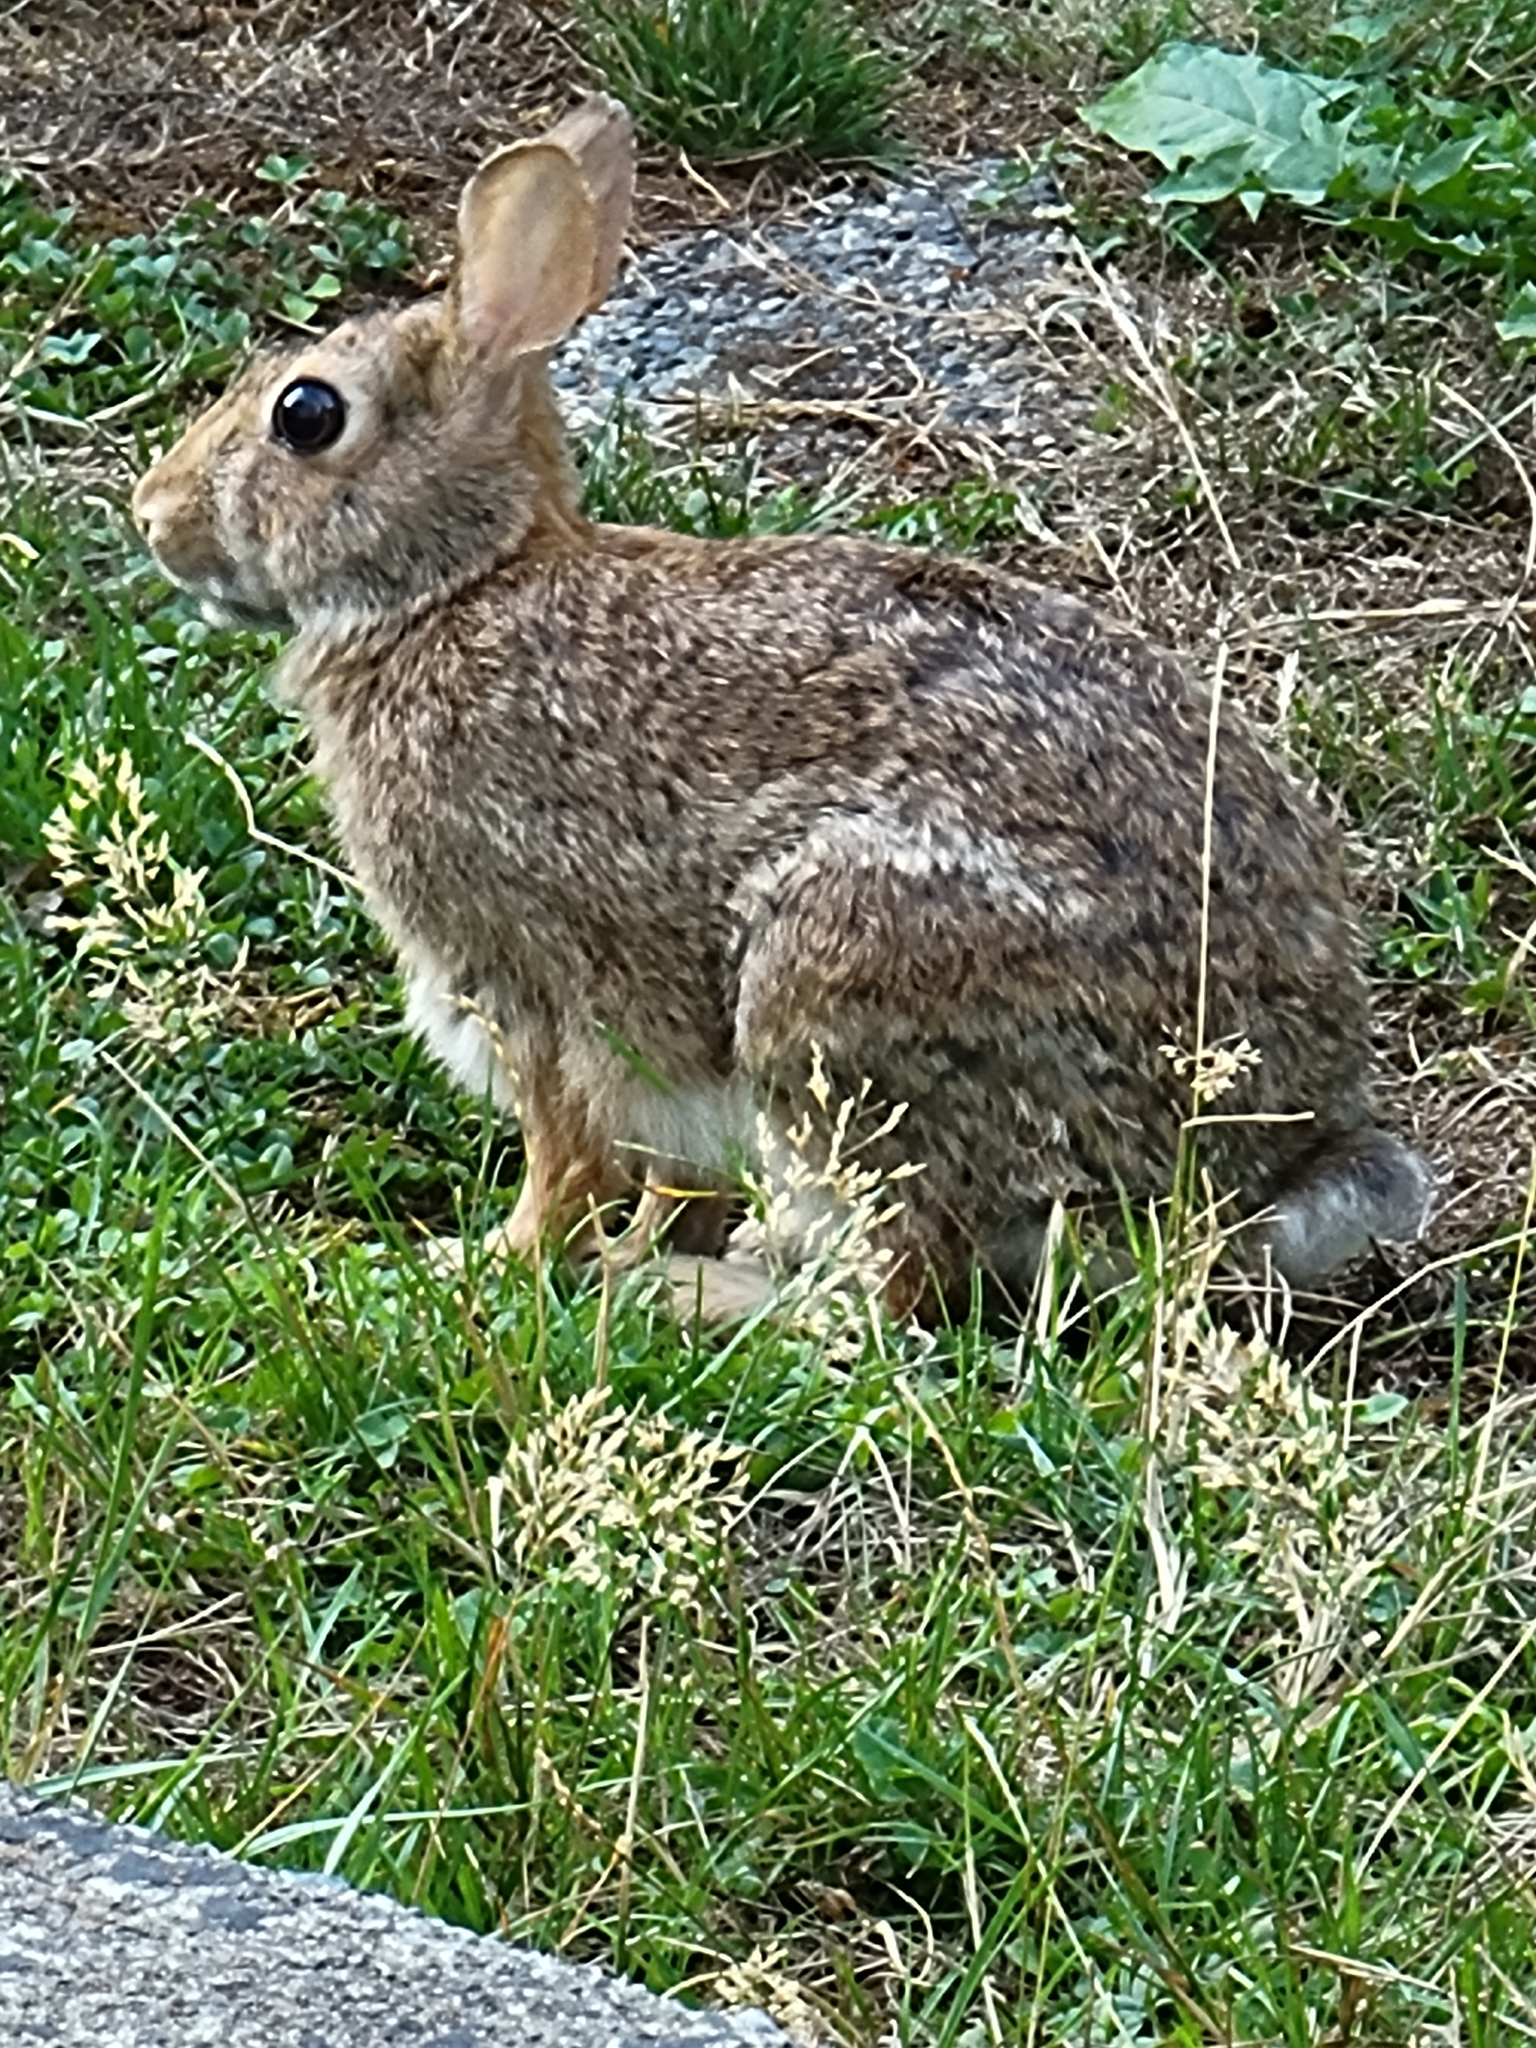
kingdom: Animalia
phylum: Chordata
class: Mammalia
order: Lagomorpha
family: Leporidae
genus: Sylvilagus
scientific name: Sylvilagus floridanus
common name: Eastern cottontail
